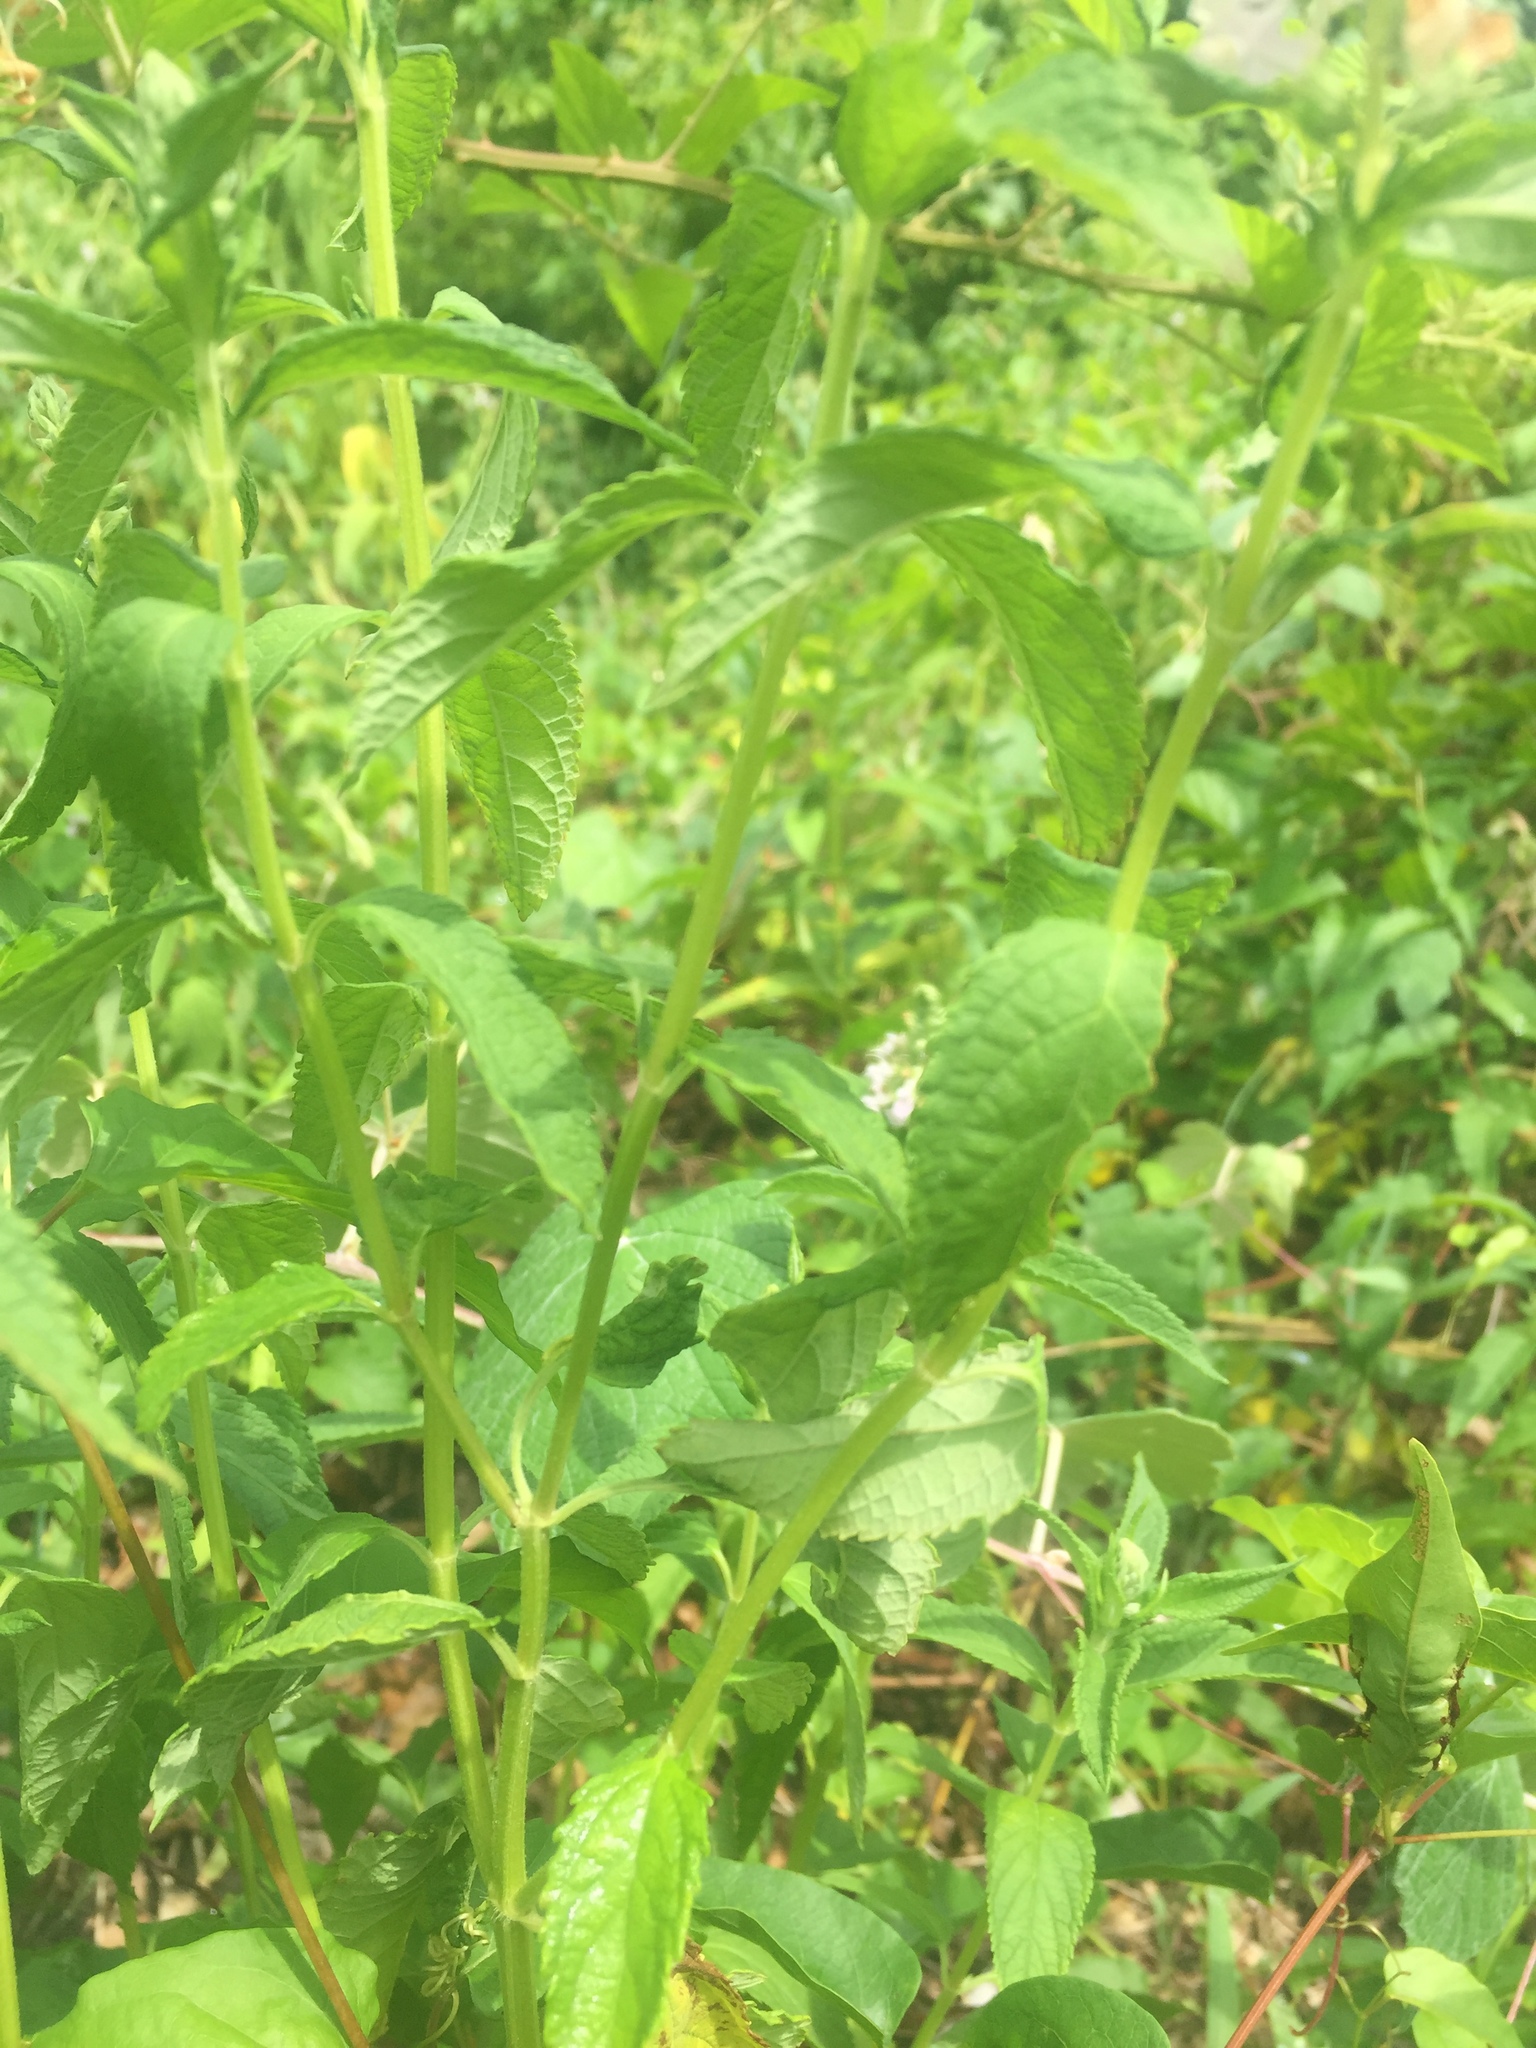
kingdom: Plantae
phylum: Tracheophyta
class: Magnoliopsida
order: Lamiales
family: Lamiaceae
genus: Teucrium
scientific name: Teucrium canadense
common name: American germander
